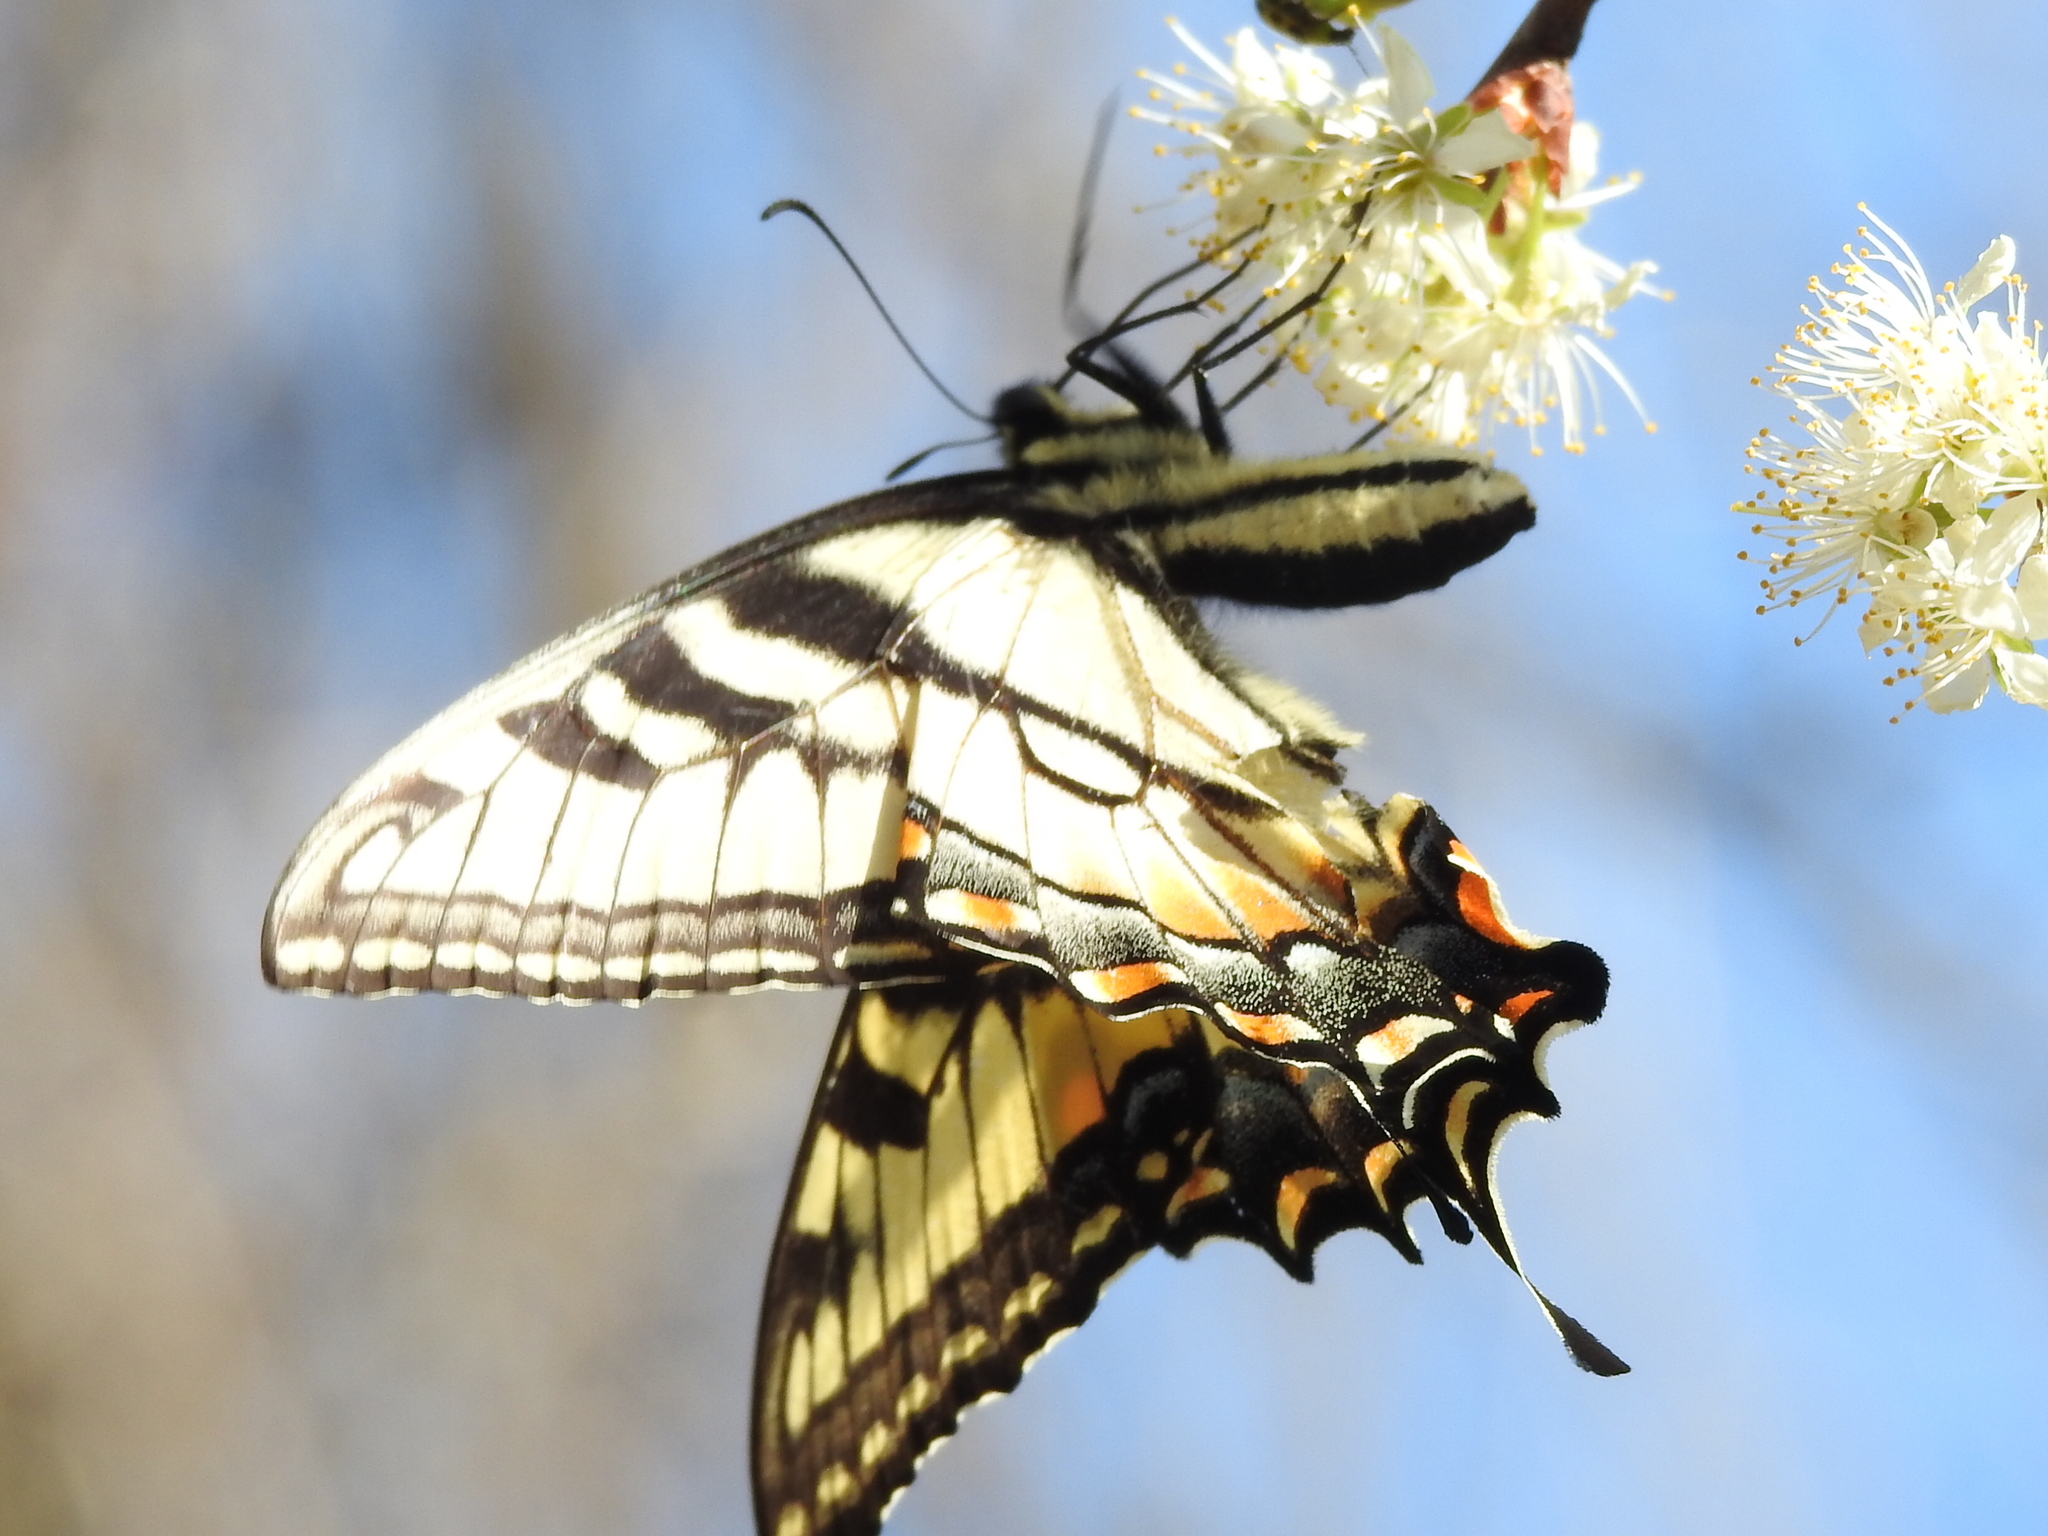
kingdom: Animalia
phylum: Arthropoda
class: Insecta
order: Lepidoptera
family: Papilionidae
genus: Papilio
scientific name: Papilio glaucus
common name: Tiger swallowtail
